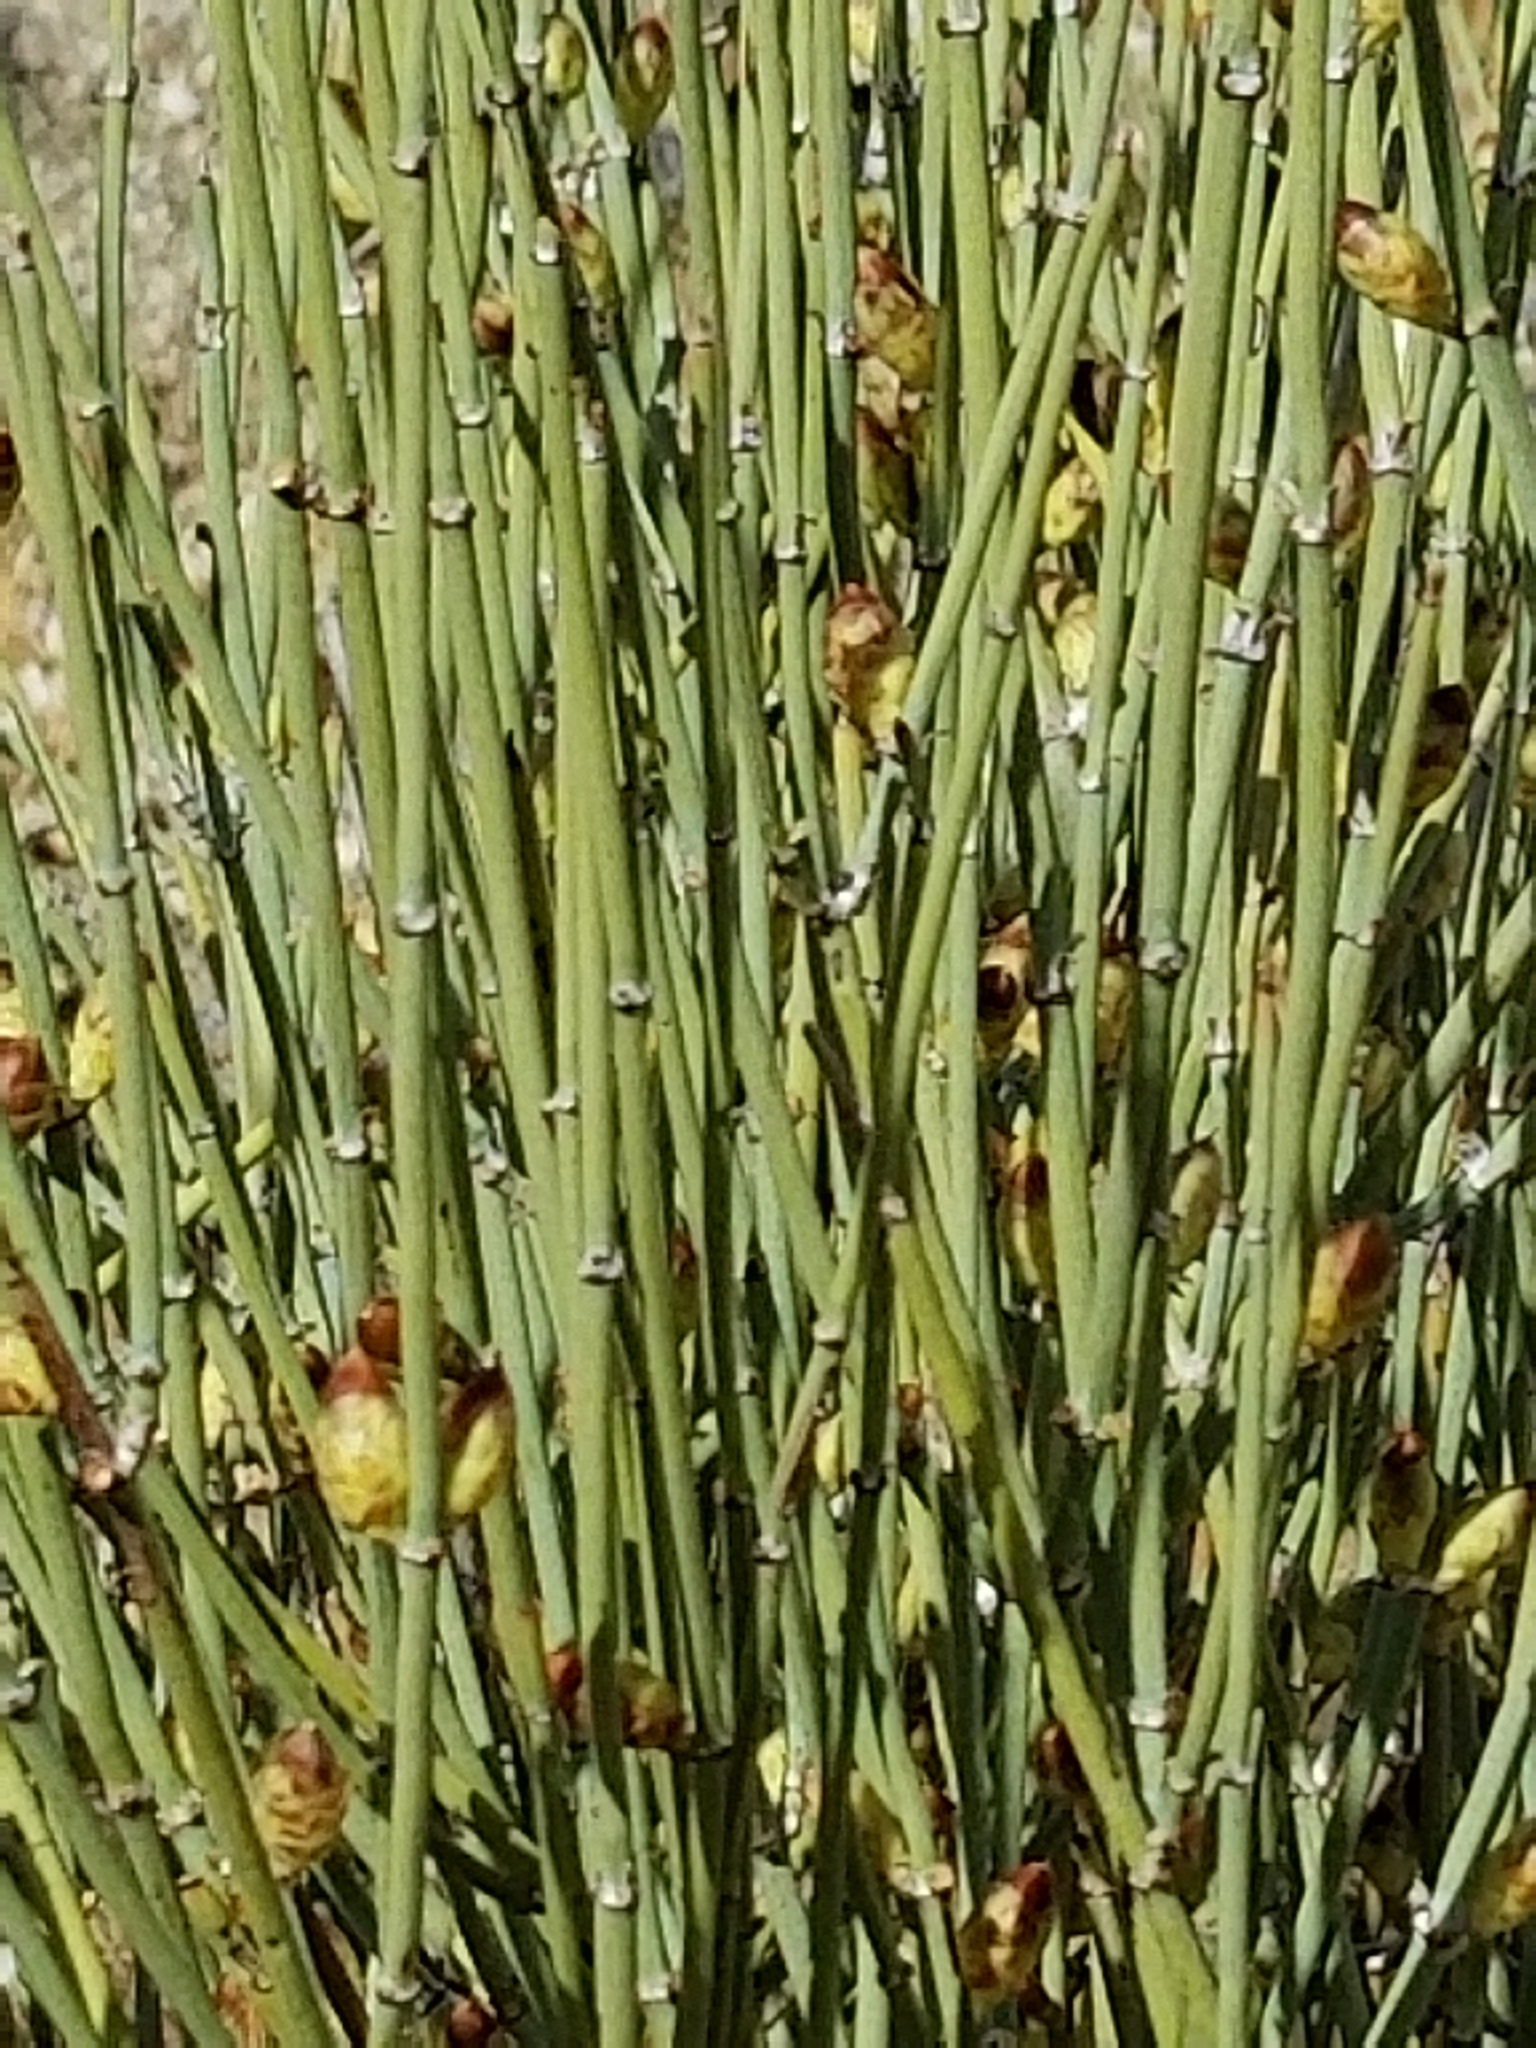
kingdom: Plantae
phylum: Tracheophyta
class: Gnetopsida
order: Ephedrales
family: Ephedraceae
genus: Ephedra
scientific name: Ephedra californica
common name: California ephedra
